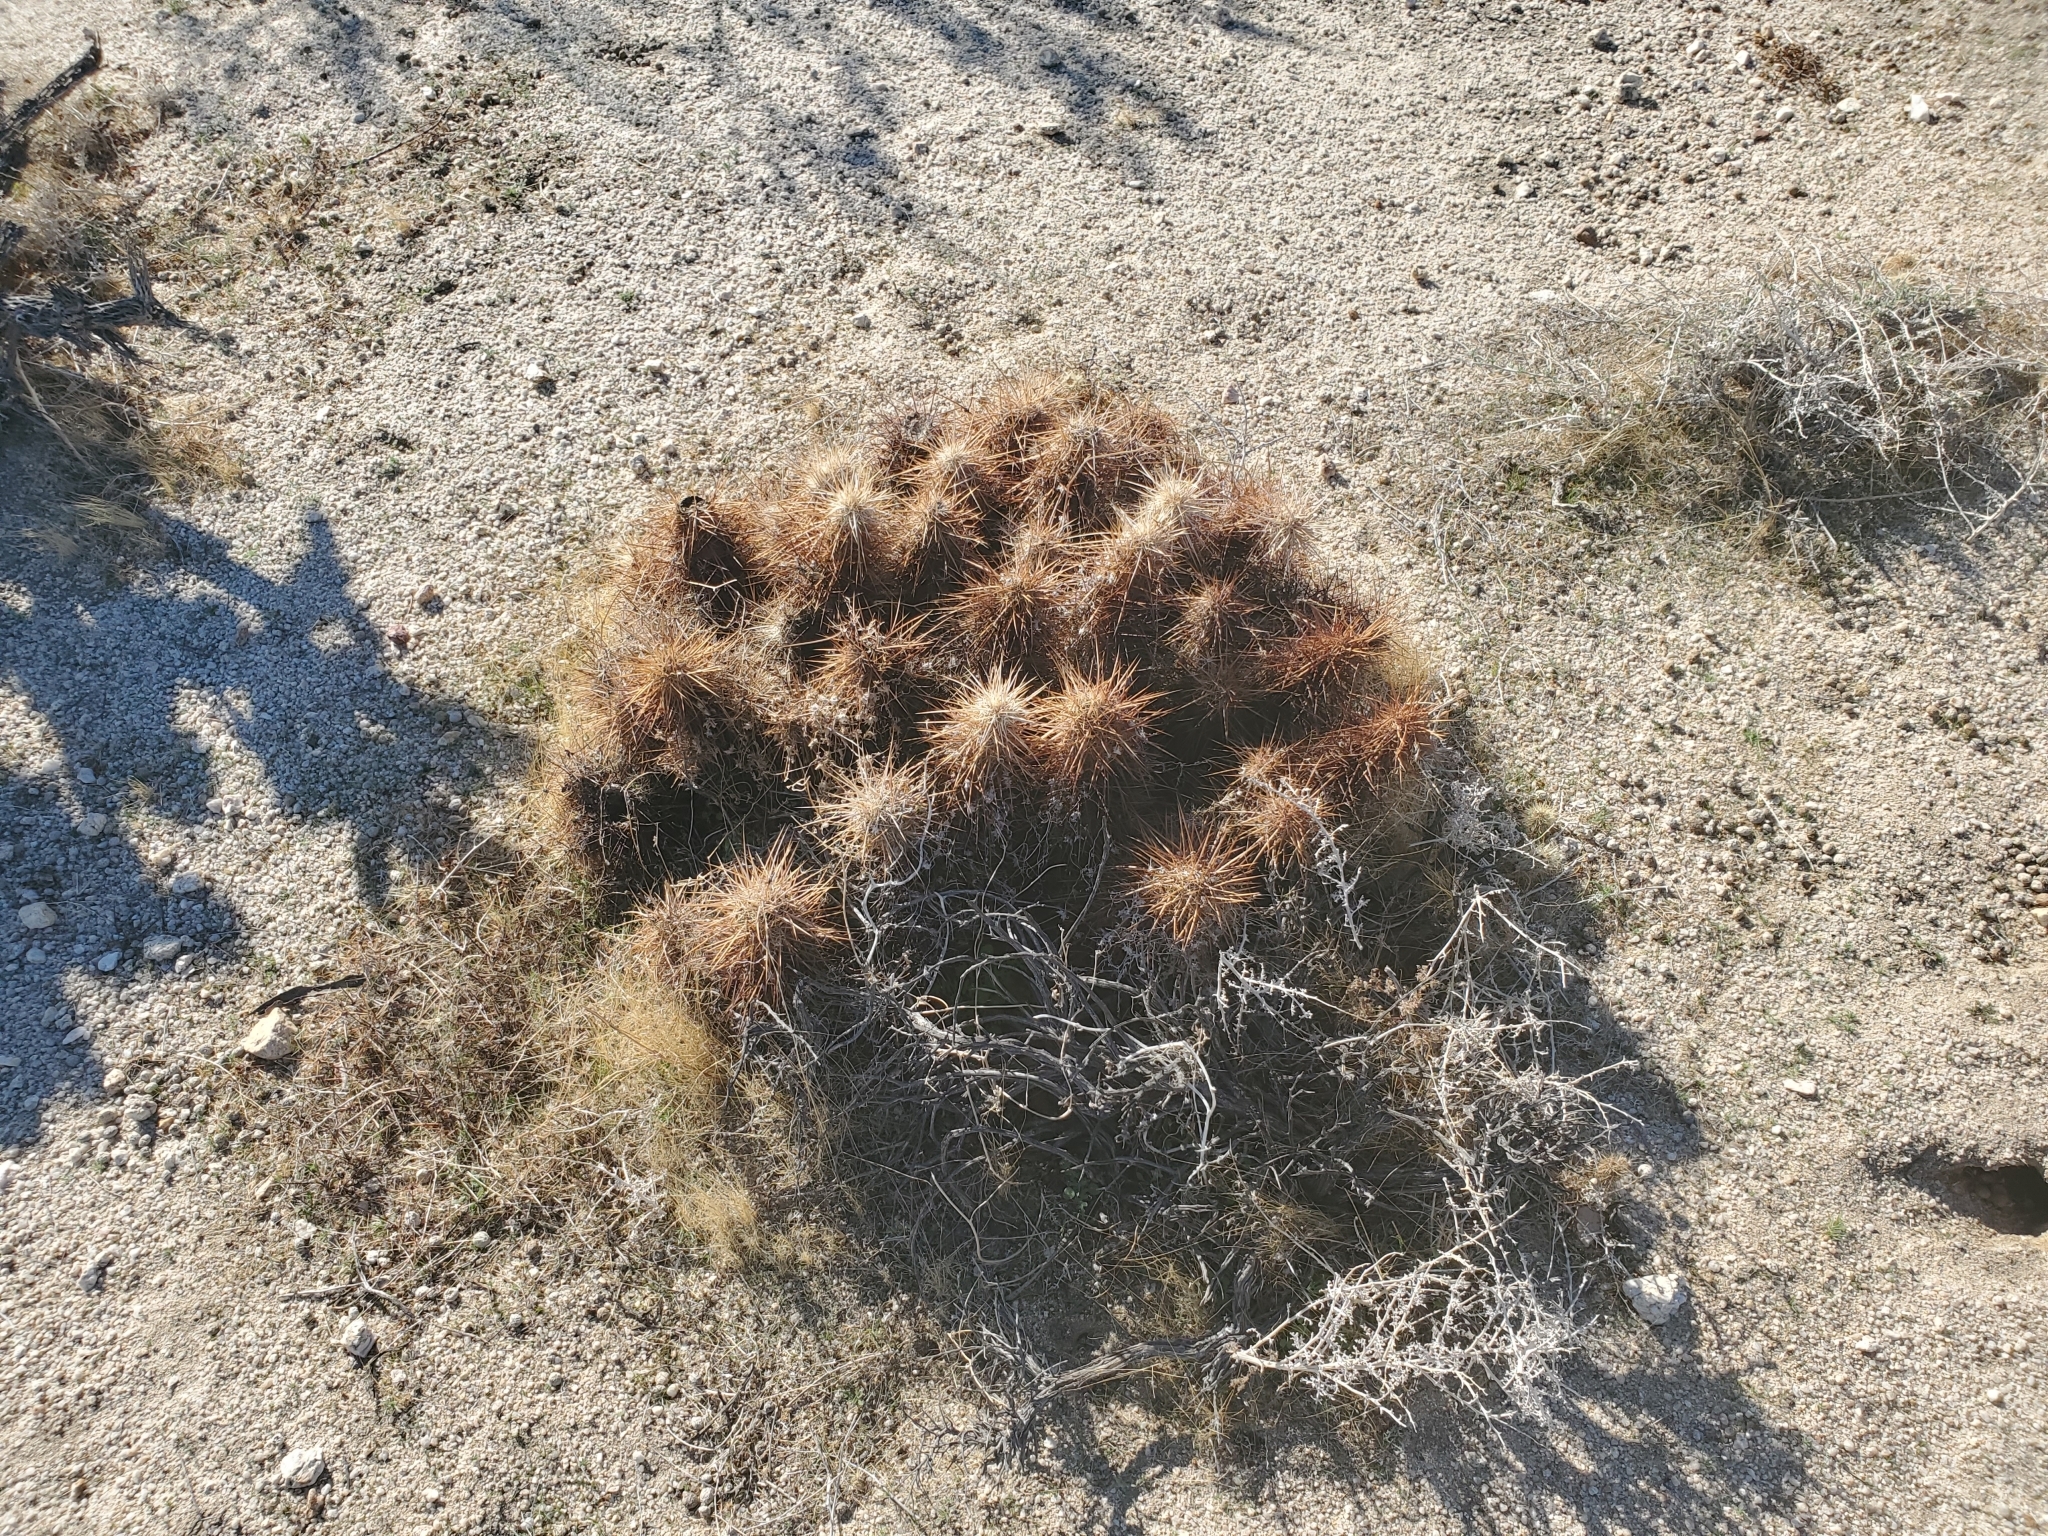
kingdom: Plantae
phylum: Tracheophyta
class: Magnoliopsida
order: Caryophyllales
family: Cactaceae
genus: Echinocereus
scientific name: Echinocereus engelmannii
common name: Engelmann's hedgehog cactus
